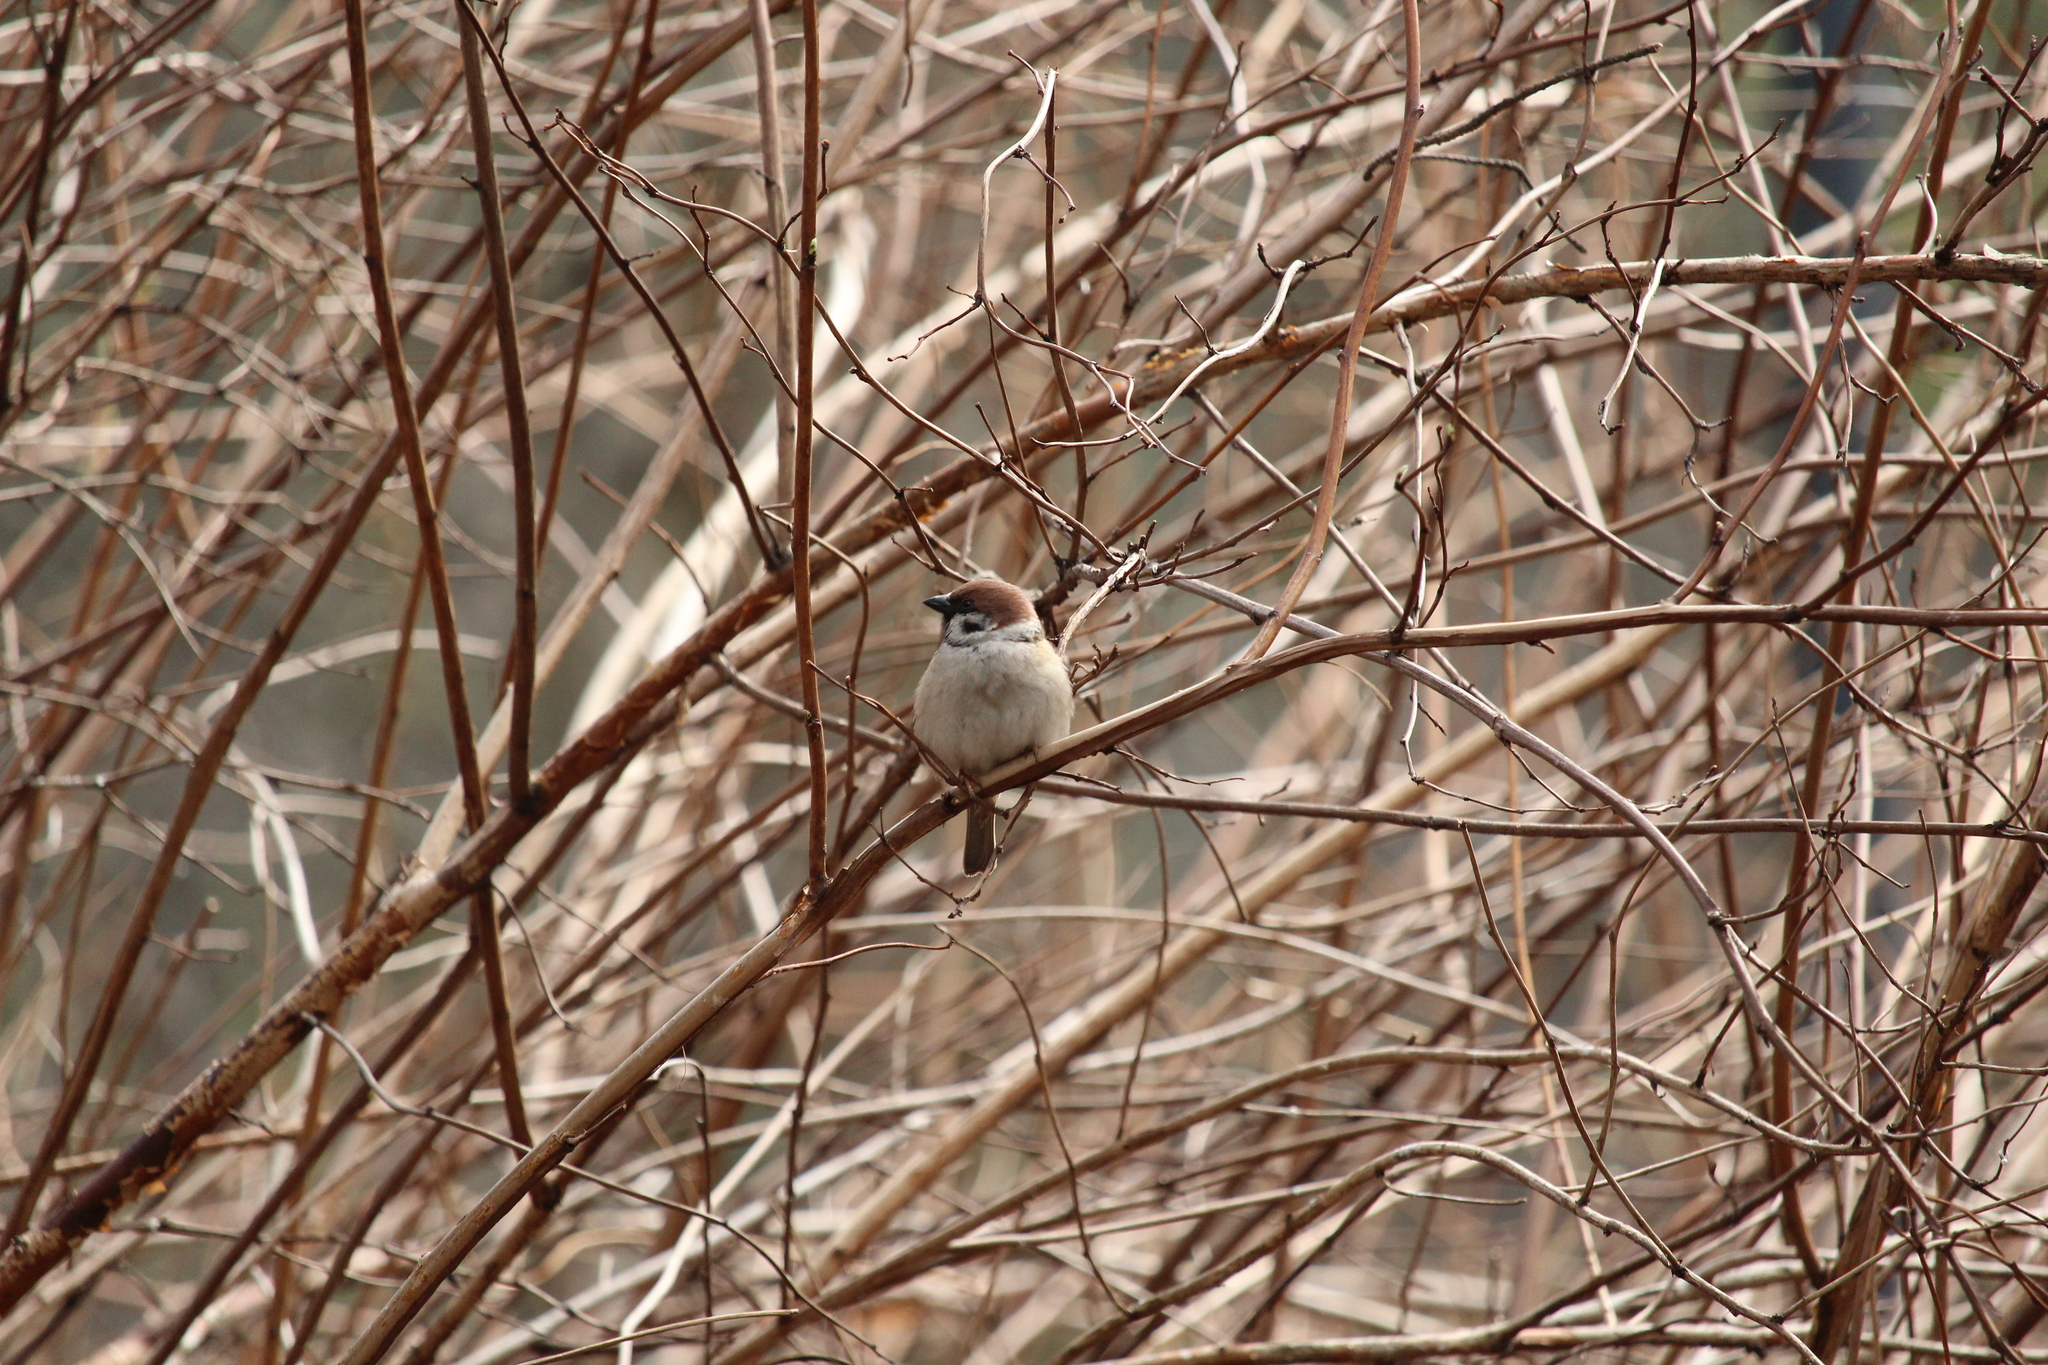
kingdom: Animalia
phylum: Chordata
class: Aves
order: Passeriformes
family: Passeridae
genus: Passer
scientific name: Passer montanus
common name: Eurasian tree sparrow
